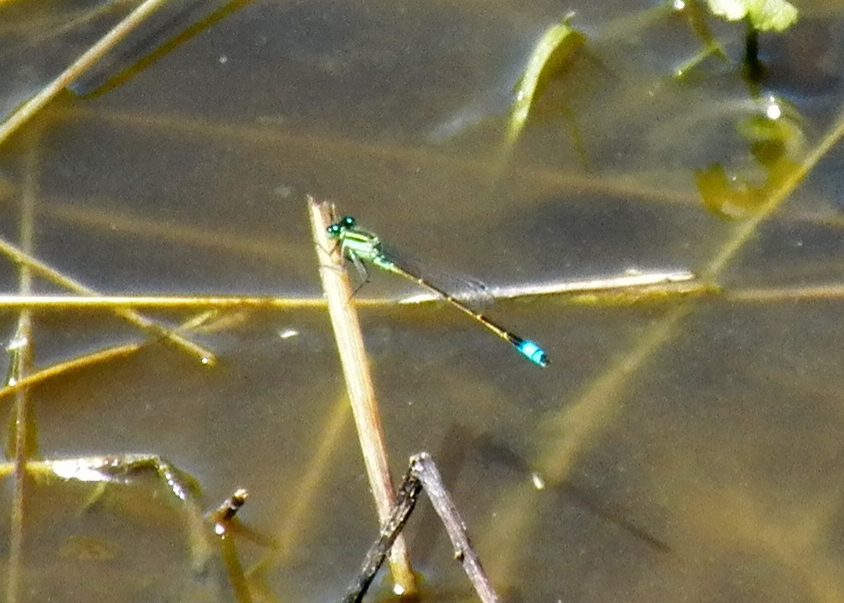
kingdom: Animalia
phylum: Arthropoda
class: Insecta
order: Odonata
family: Coenagrionidae
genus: Ischnura
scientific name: Ischnura ramburii
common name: Rambur's forktail
